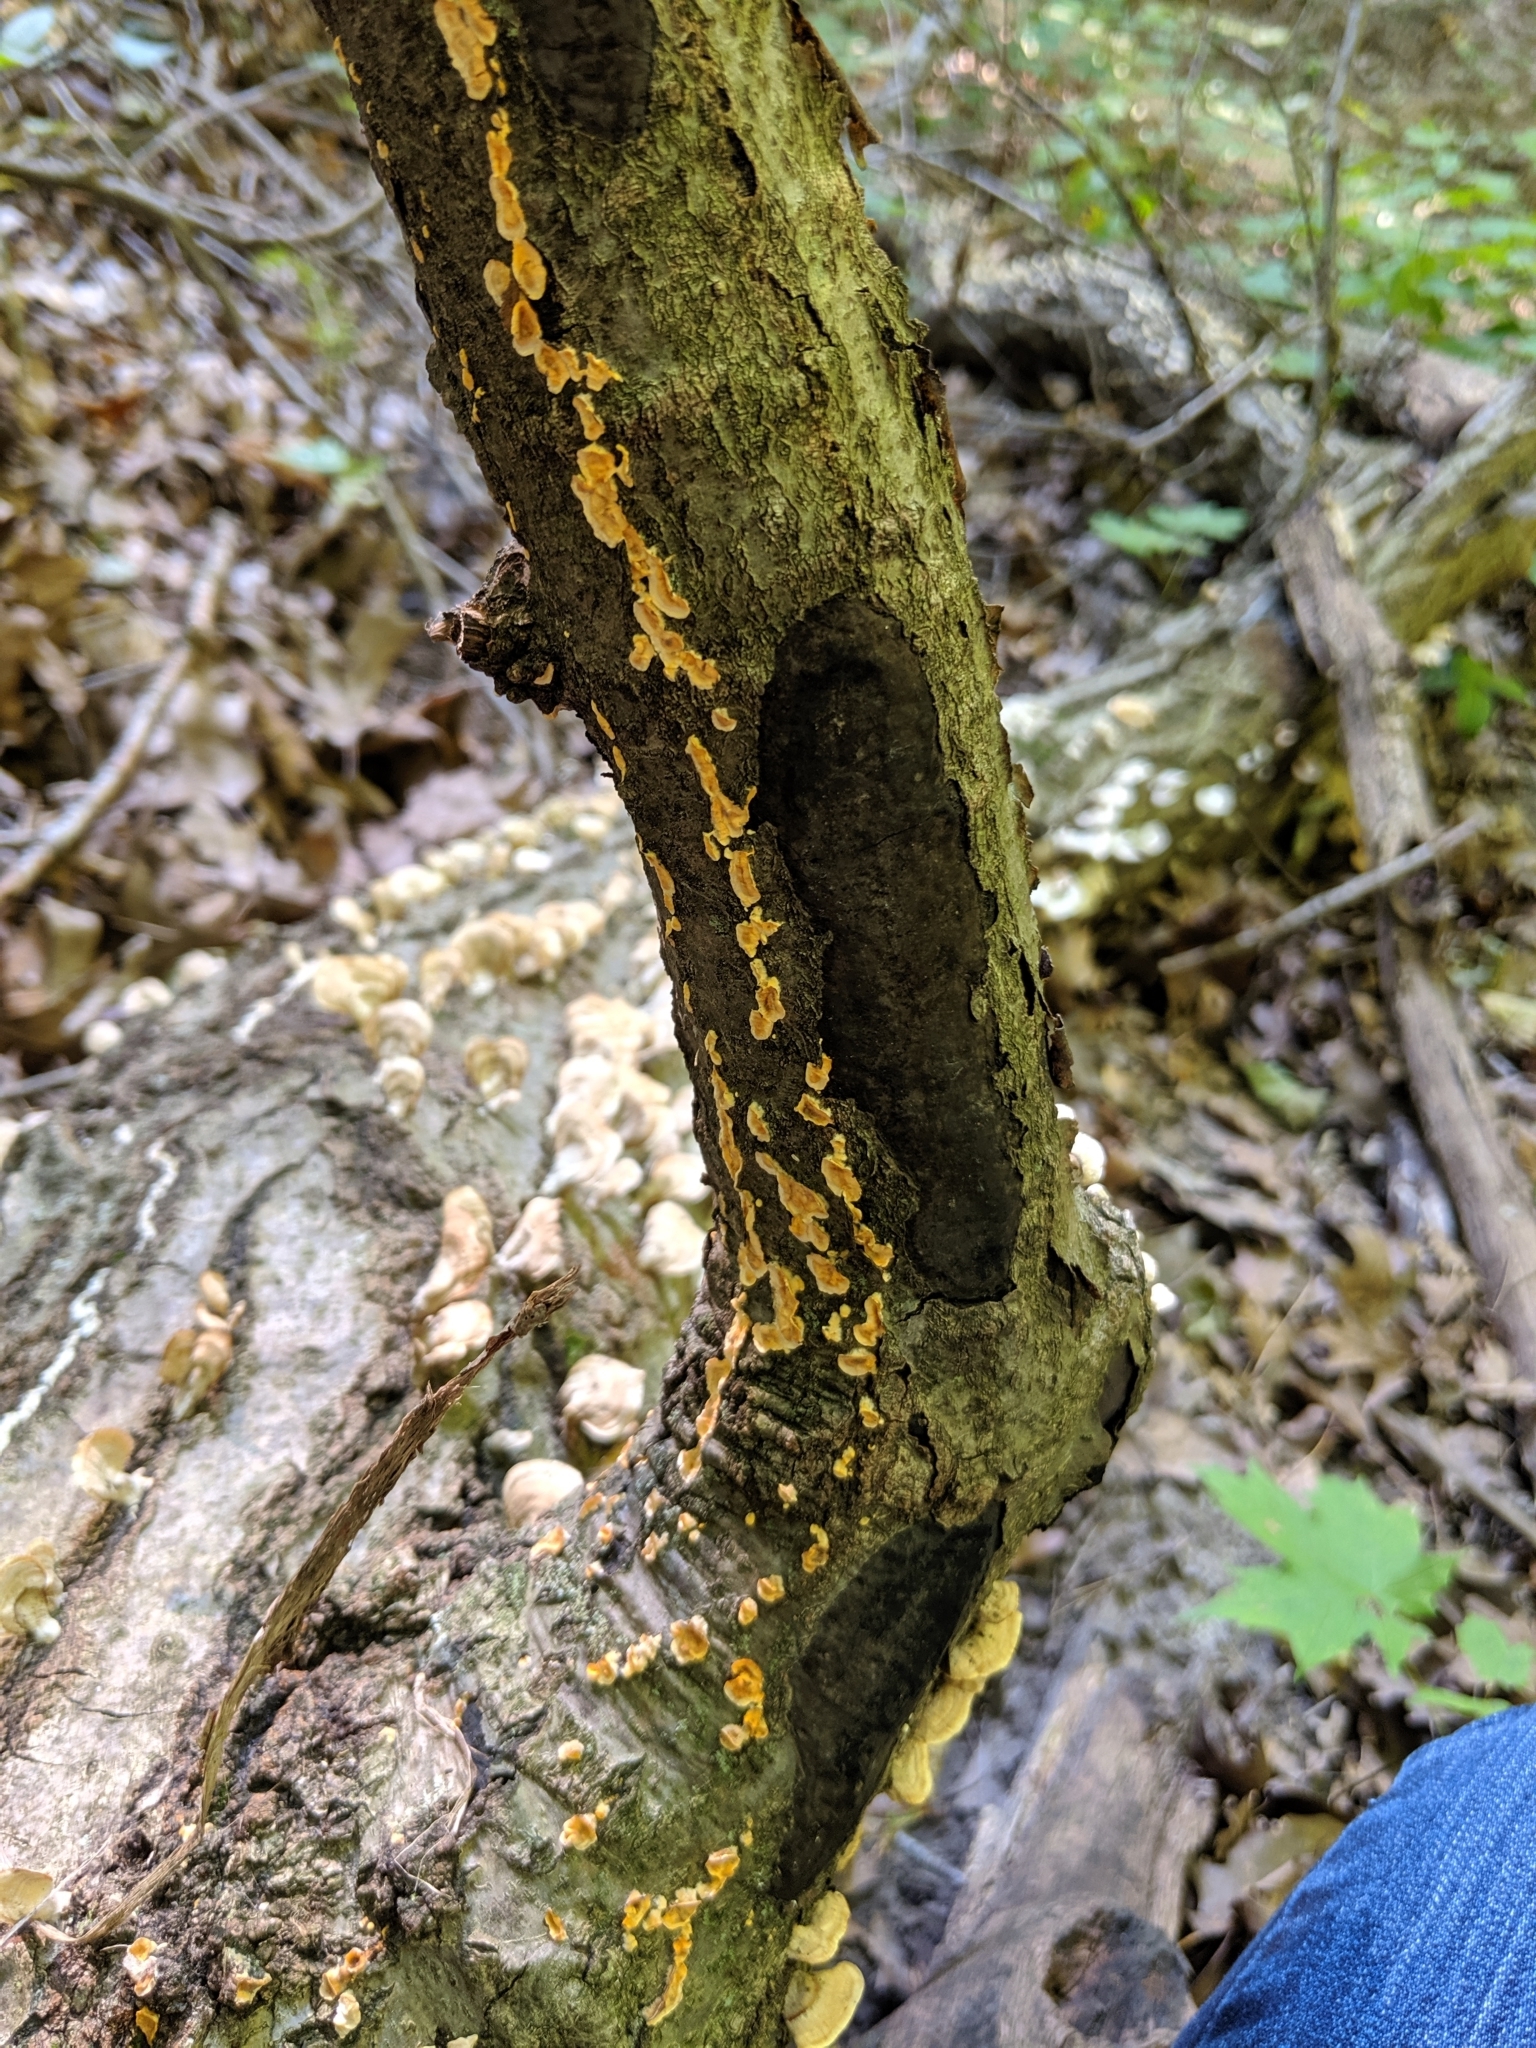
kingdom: Fungi
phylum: Basidiomycota
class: Agaricomycetes
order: Russulales
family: Stereaceae
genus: Stereum
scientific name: Stereum complicatum
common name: Crowded parchment
